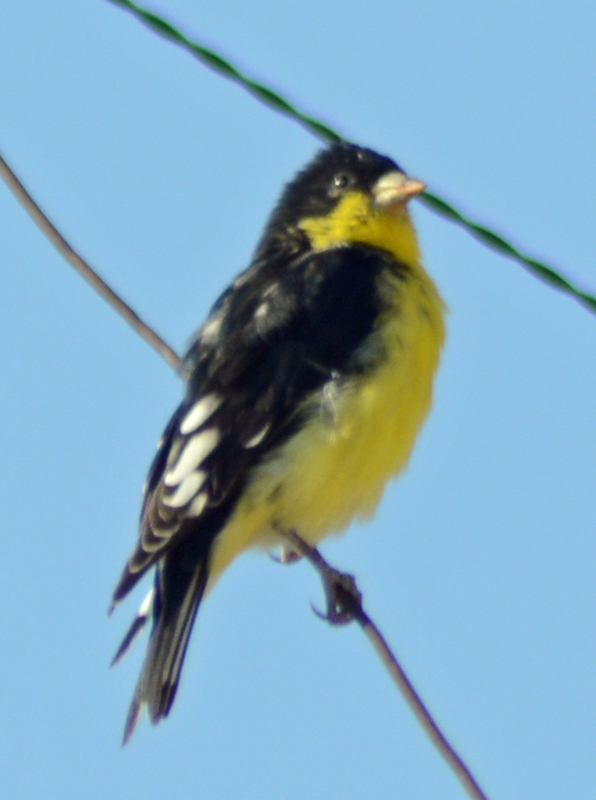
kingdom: Animalia
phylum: Chordata
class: Aves
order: Passeriformes
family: Fringillidae
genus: Spinus
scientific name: Spinus psaltria
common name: Lesser goldfinch
